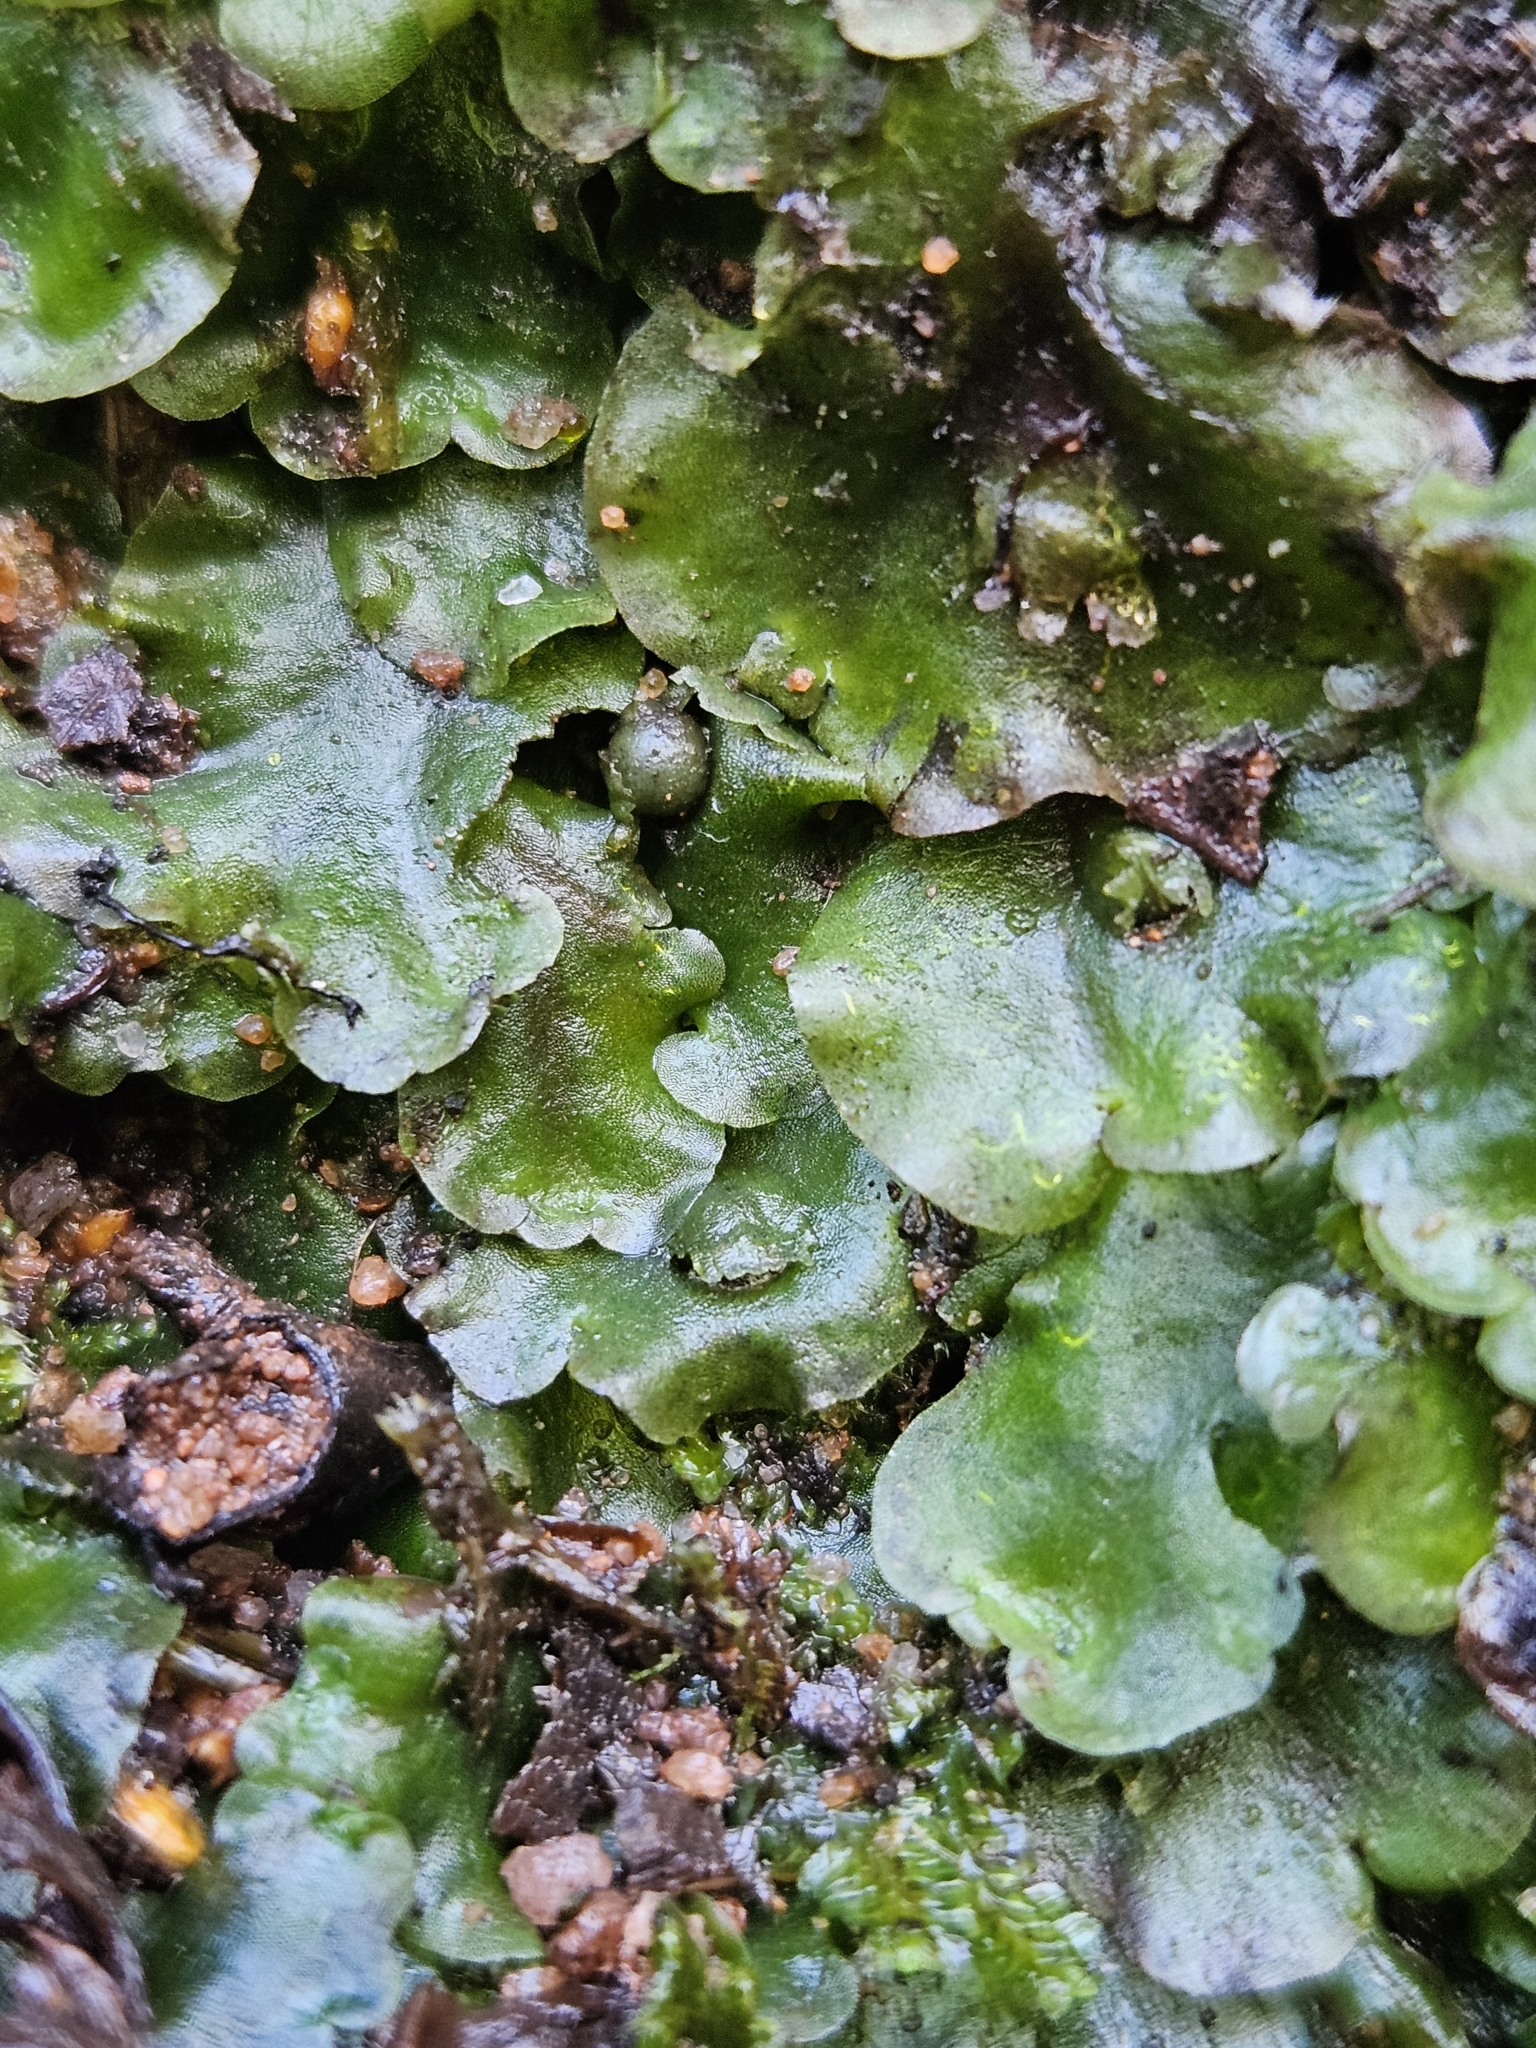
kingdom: Plantae
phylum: Marchantiophyta
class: Jungermanniopsida
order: Pelliales
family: Pelliaceae
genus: Pellia
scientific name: Pellia epiphylla
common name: Common pellia
